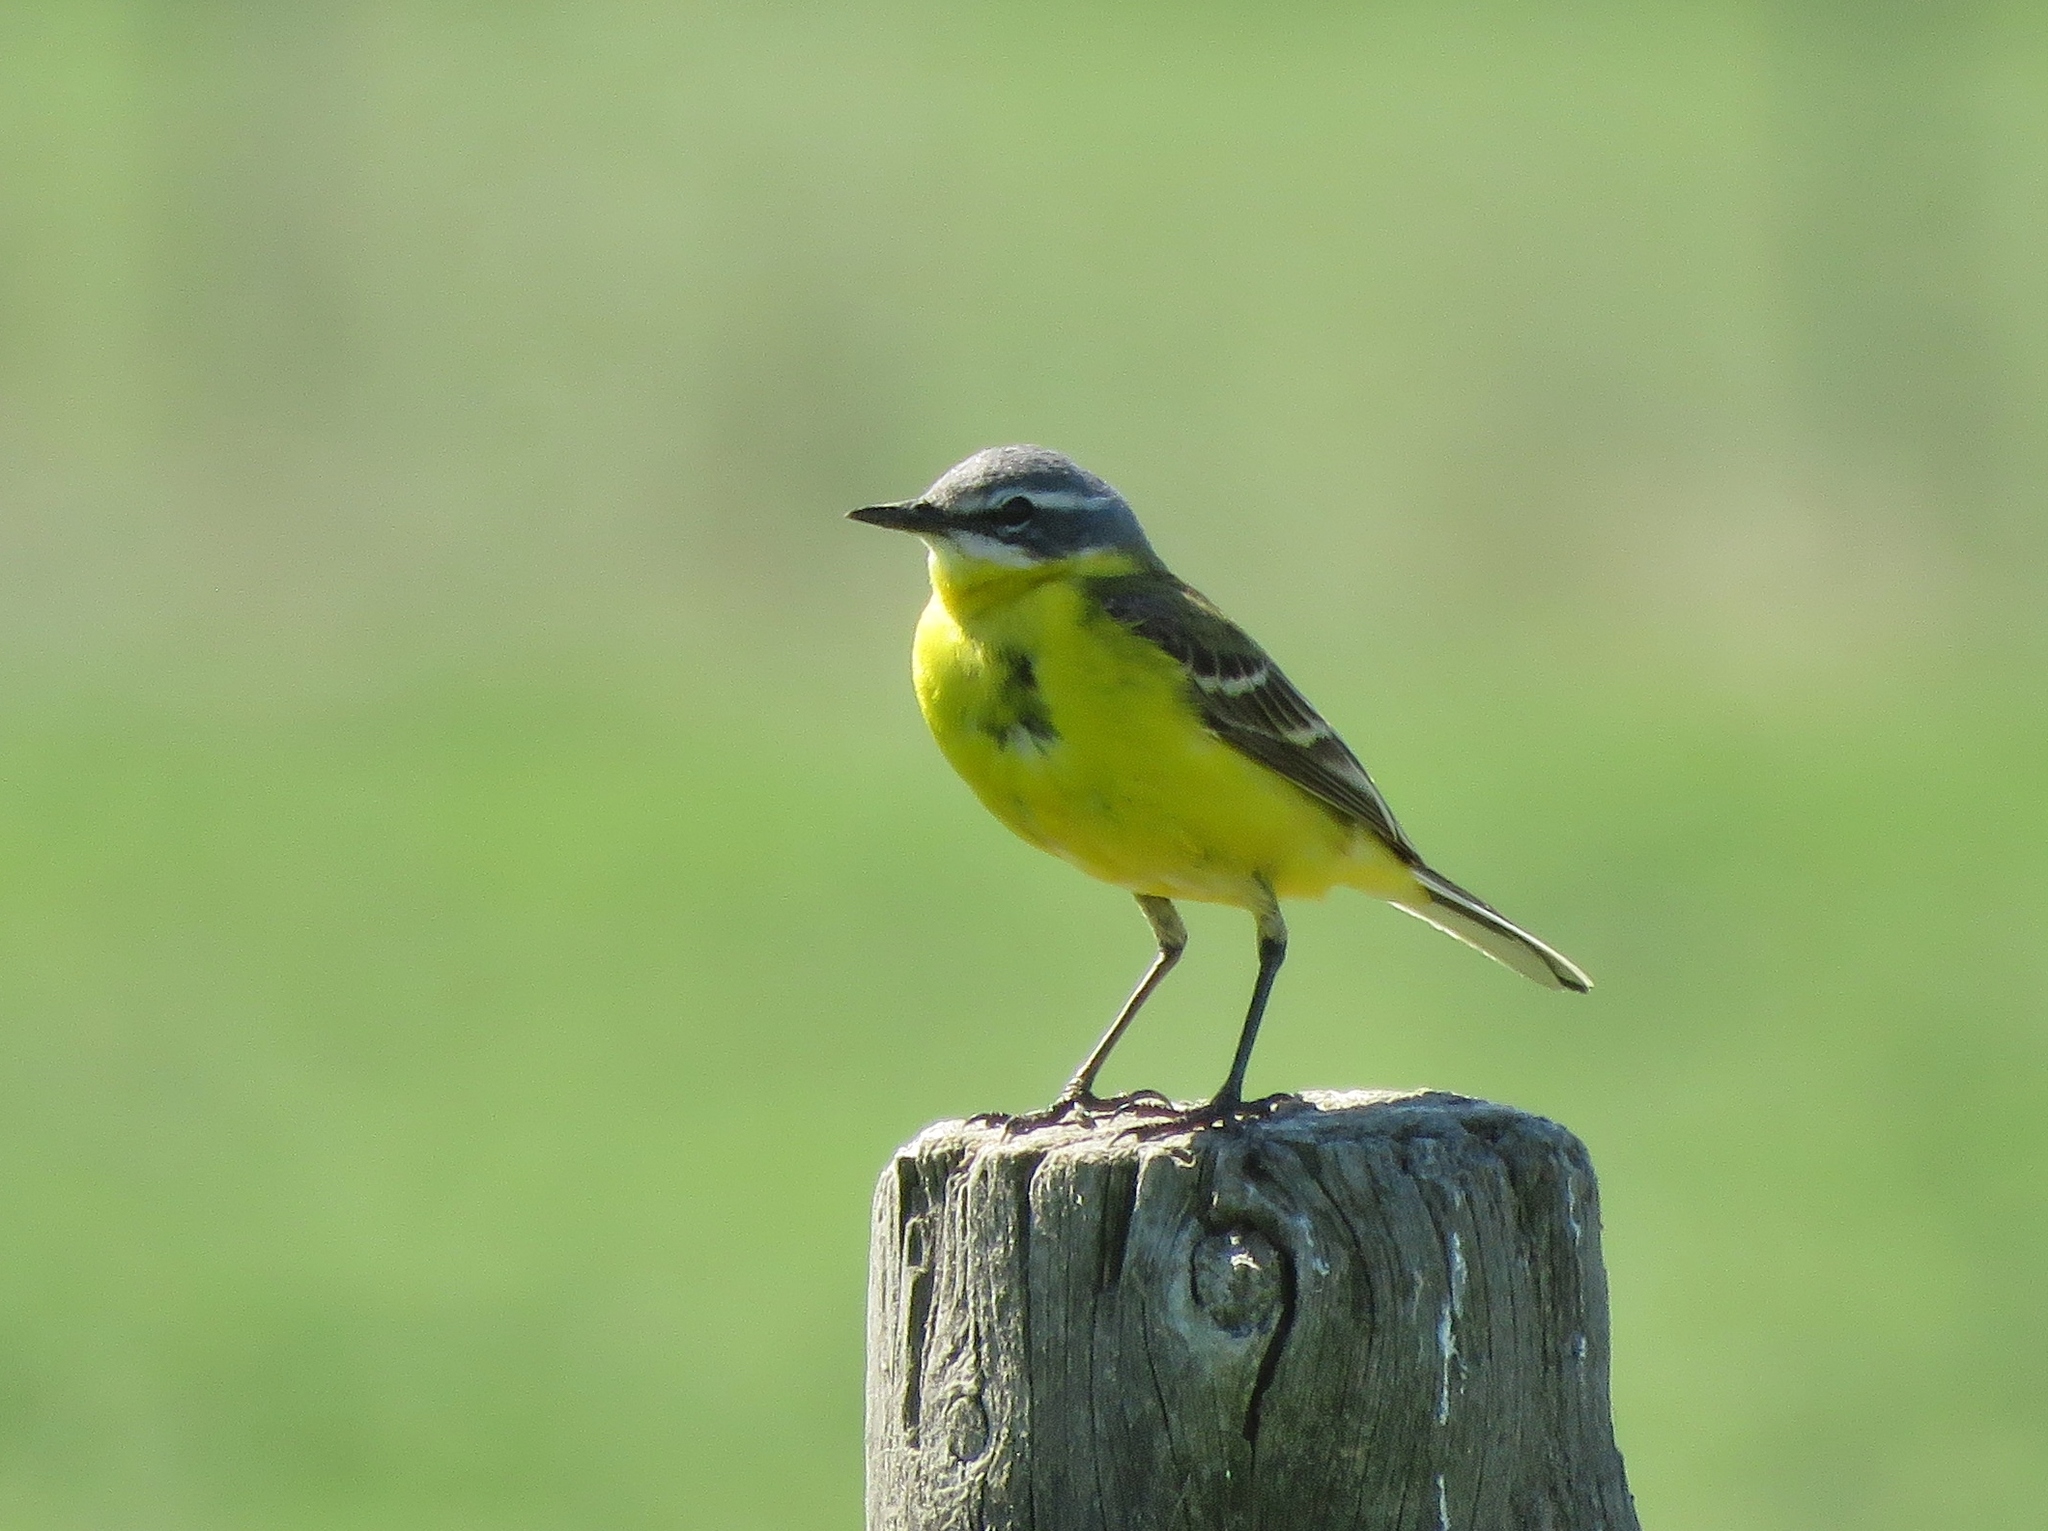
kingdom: Animalia
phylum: Chordata
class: Aves
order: Passeriformes
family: Motacillidae
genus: Motacilla
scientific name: Motacilla flava
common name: Western yellow wagtail
